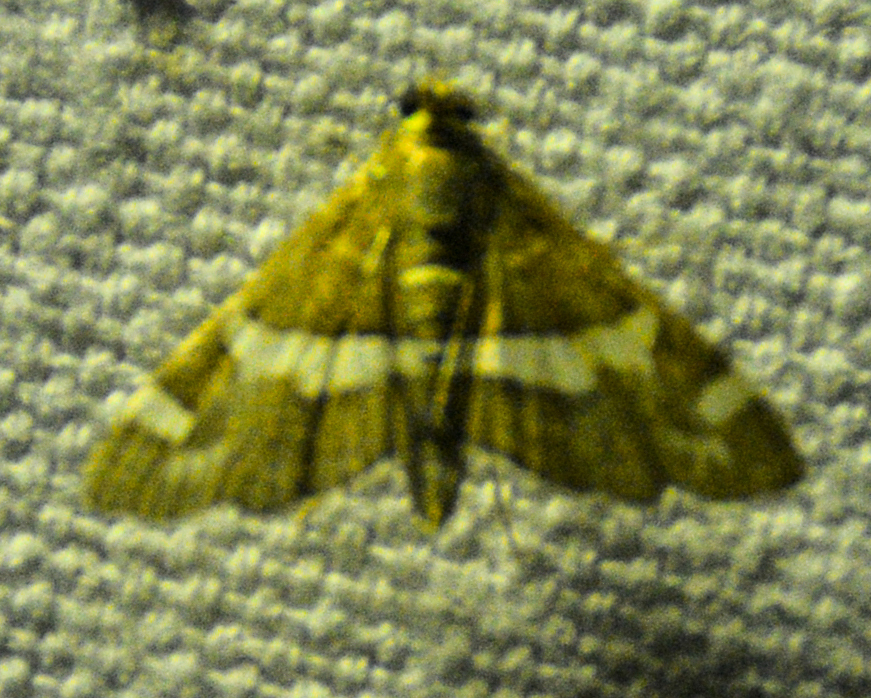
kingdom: Animalia
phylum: Arthropoda
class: Insecta
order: Lepidoptera
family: Crambidae
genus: Spoladea
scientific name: Spoladea recurvalis
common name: Beet webworm moth
